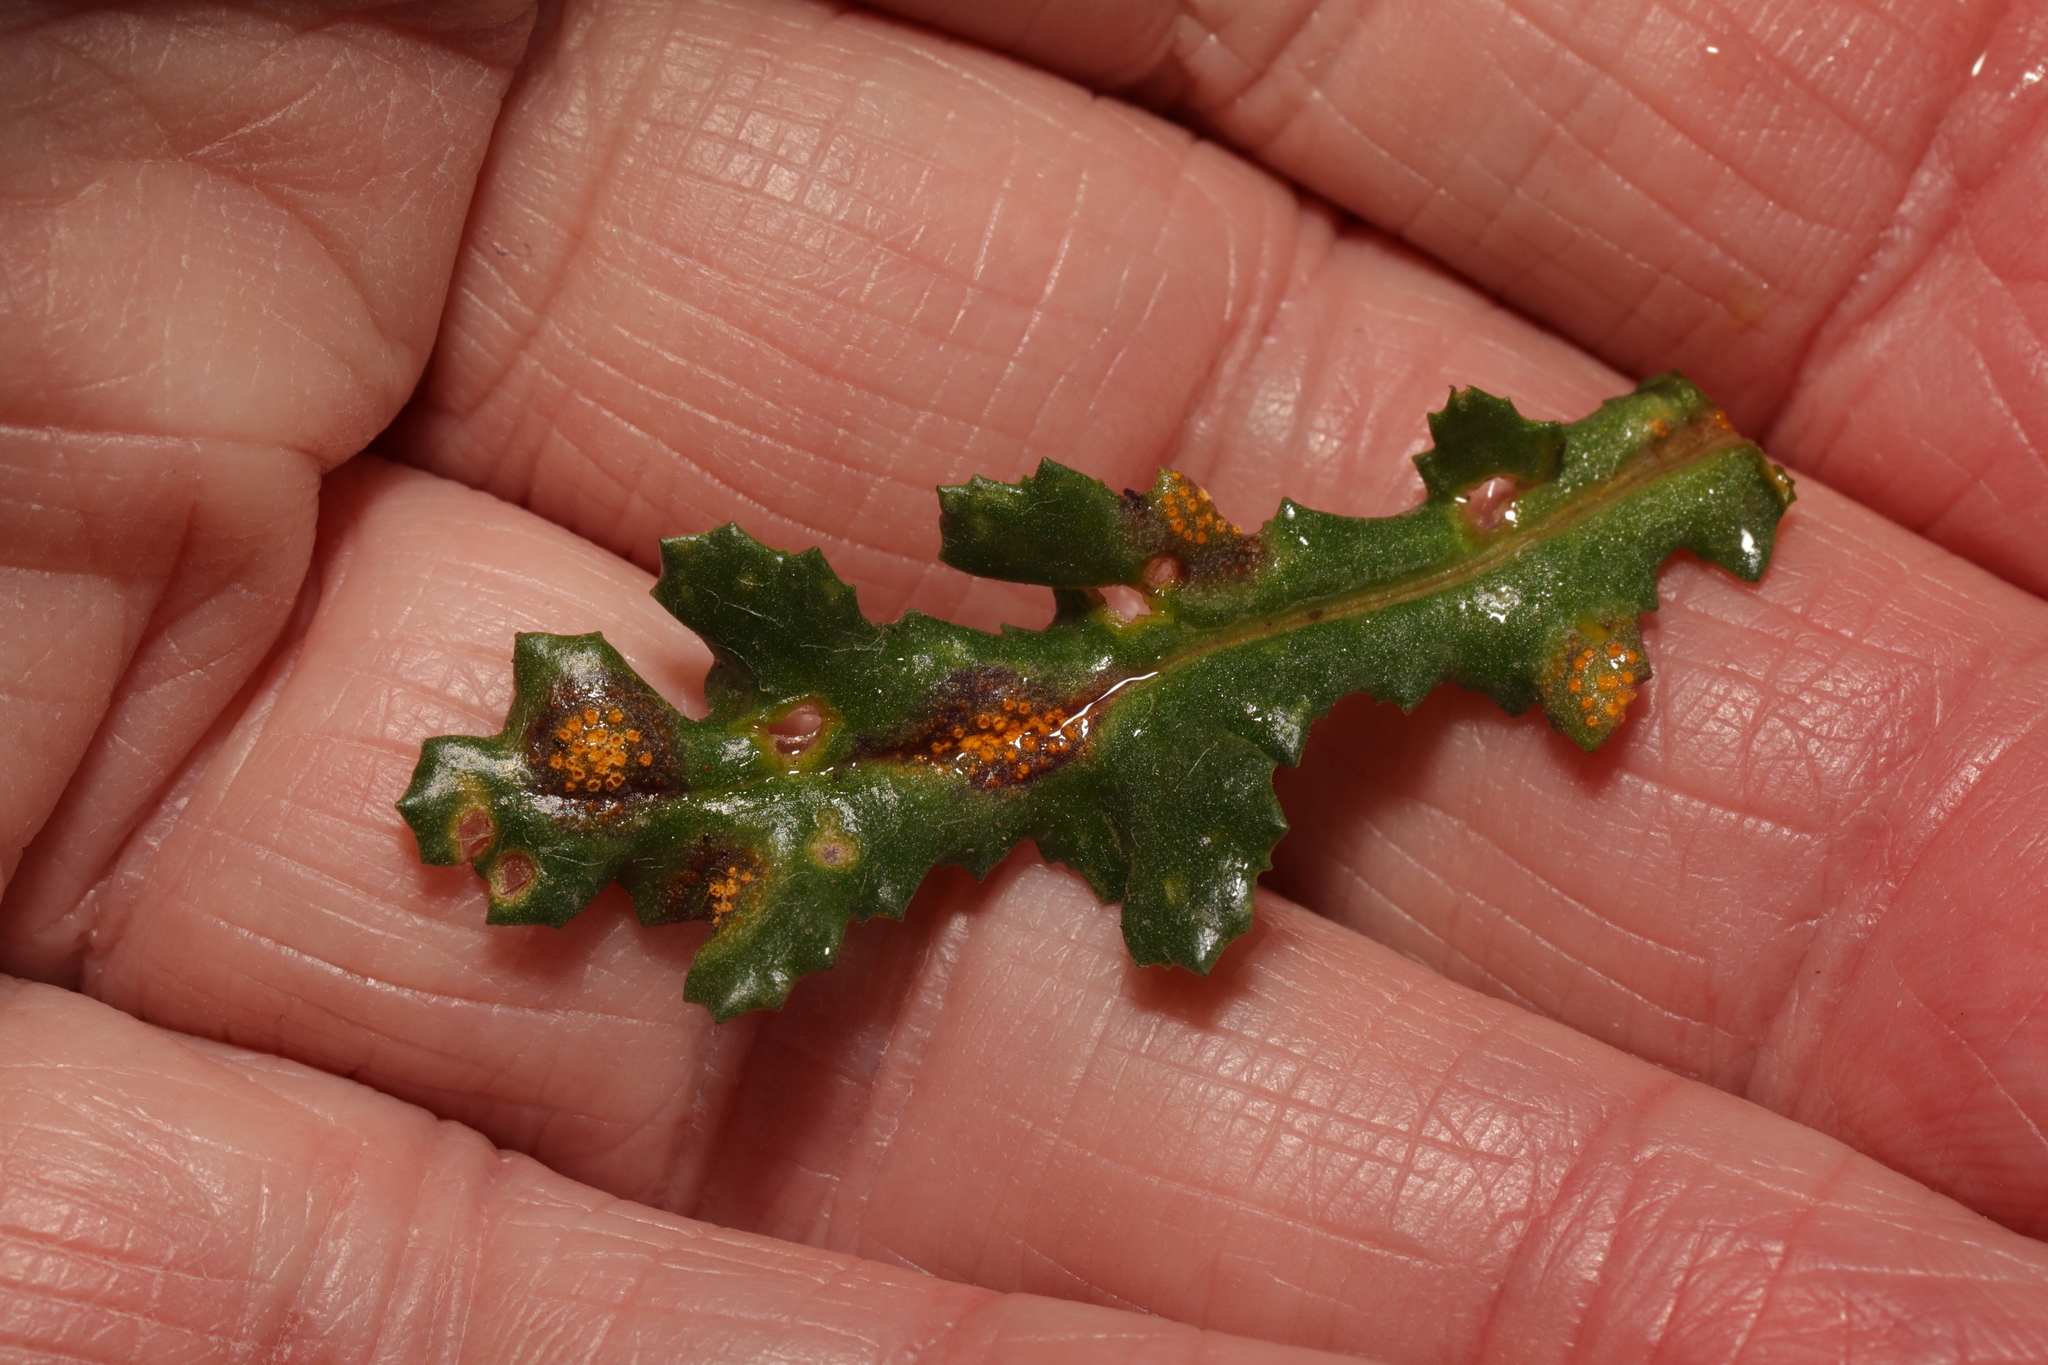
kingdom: Fungi
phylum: Basidiomycota
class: Pucciniomycetes
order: Pucciniales
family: Pucciniaceae
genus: Puccinia
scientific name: Puccinia lagenophorae
